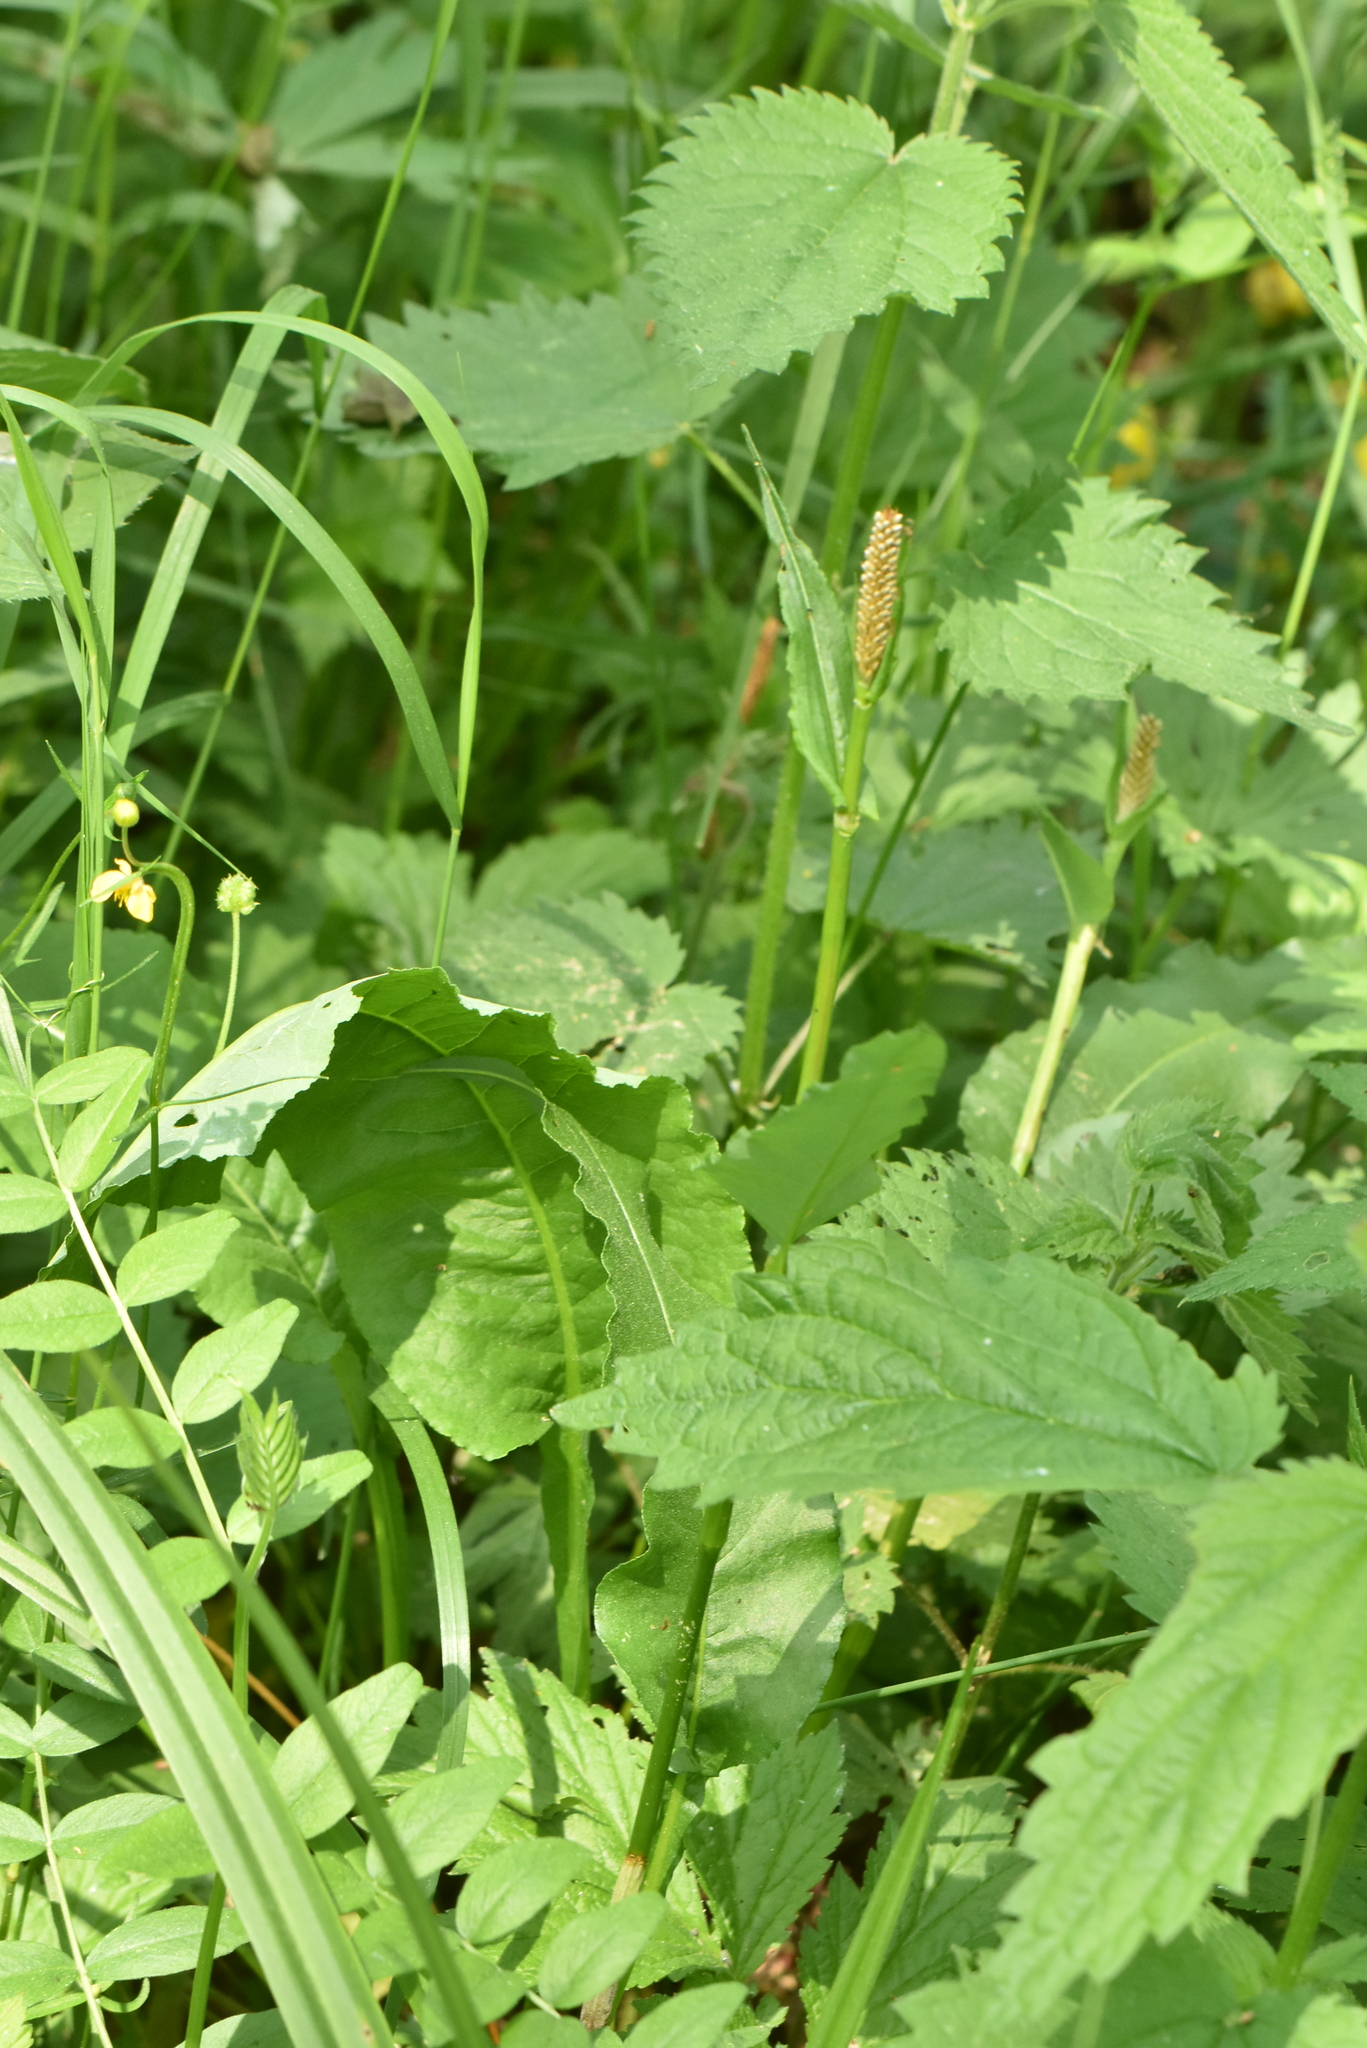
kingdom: Plantae
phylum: Tracheophyta
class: Magnoliopsida
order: Caryophyllales
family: Polygonaceae
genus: Bistorta
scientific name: Bistorta officinalis
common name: Common bistort
